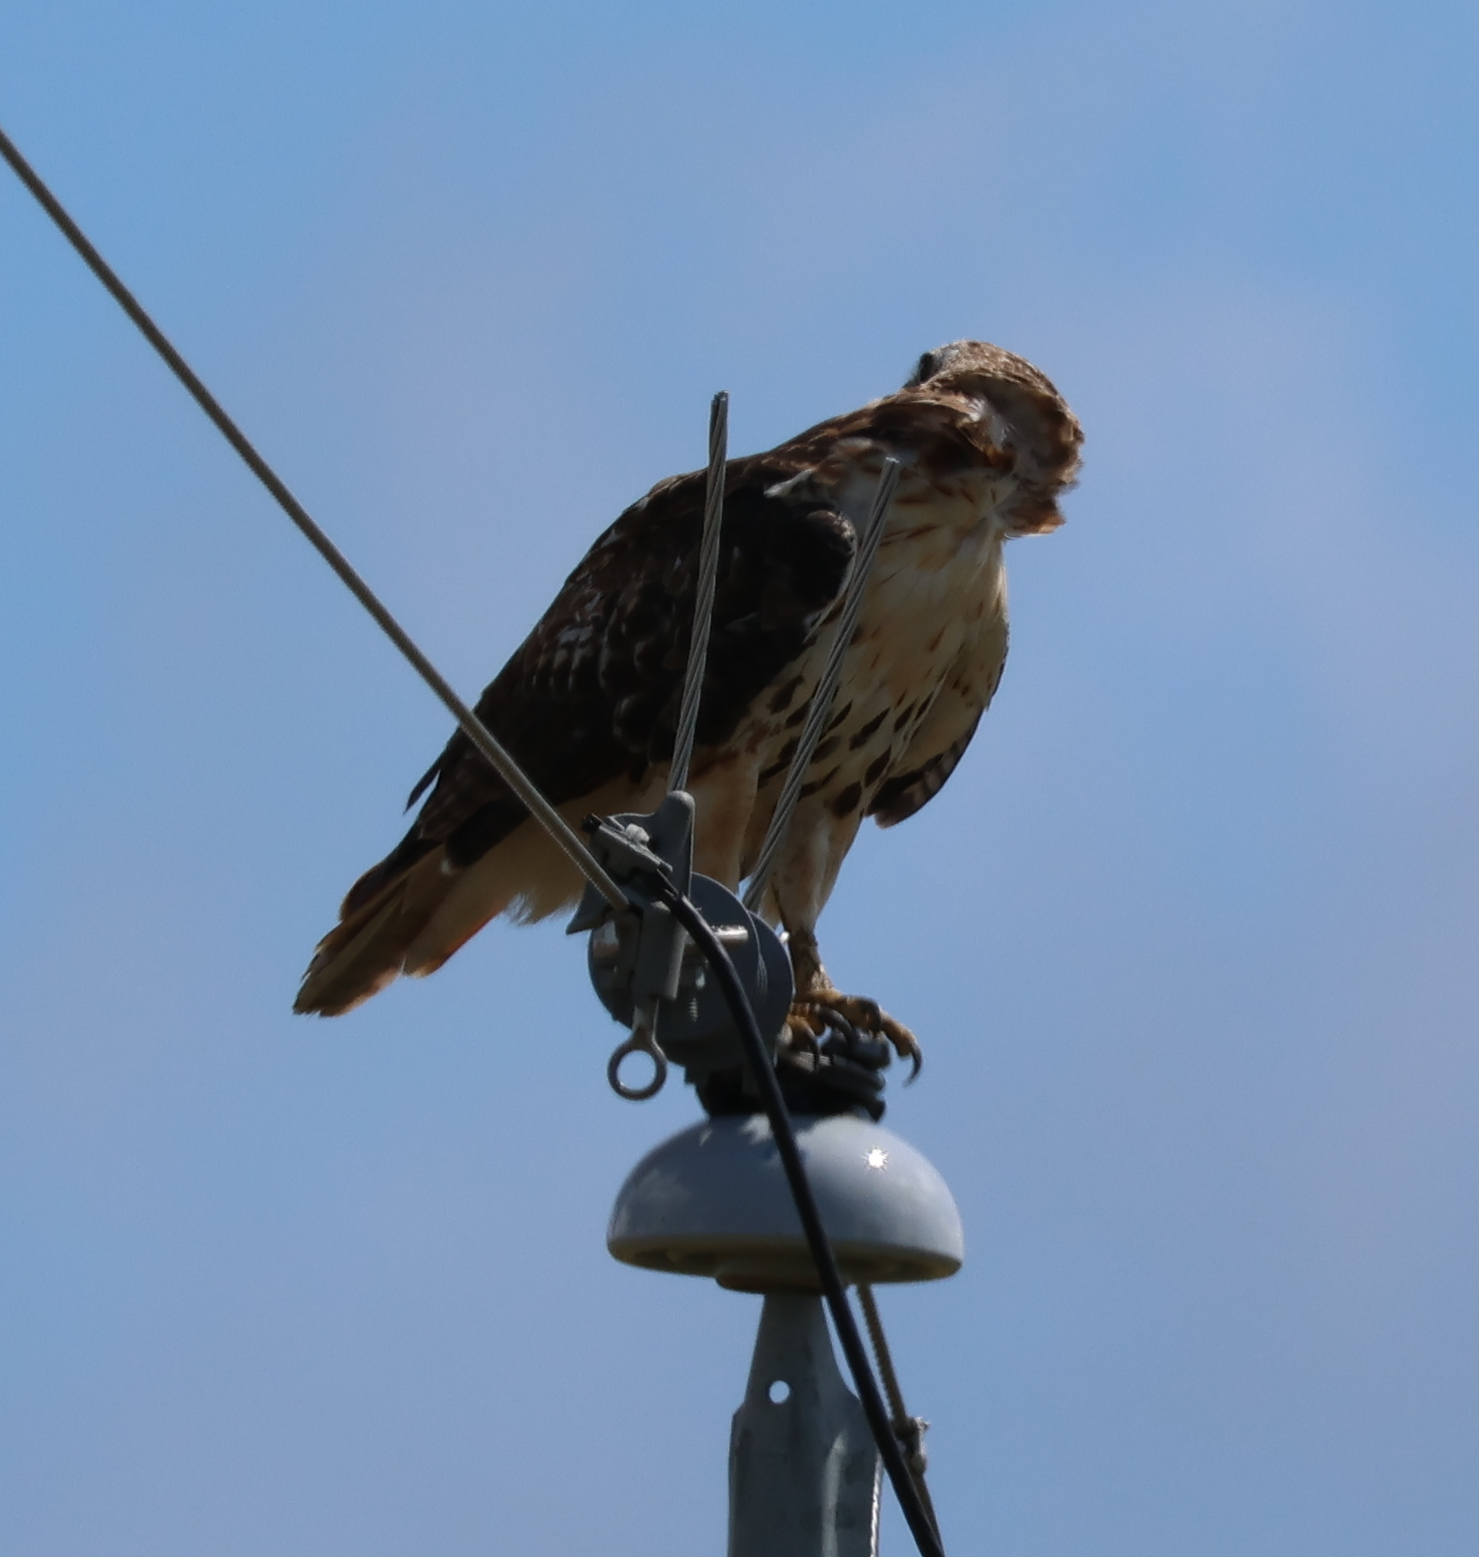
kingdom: Animalia
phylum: Chordata
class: Aves
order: Accipitriformes
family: Accipitridae
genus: Buteo
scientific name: Buteo jamaicensis
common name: Red-tailed hawk
